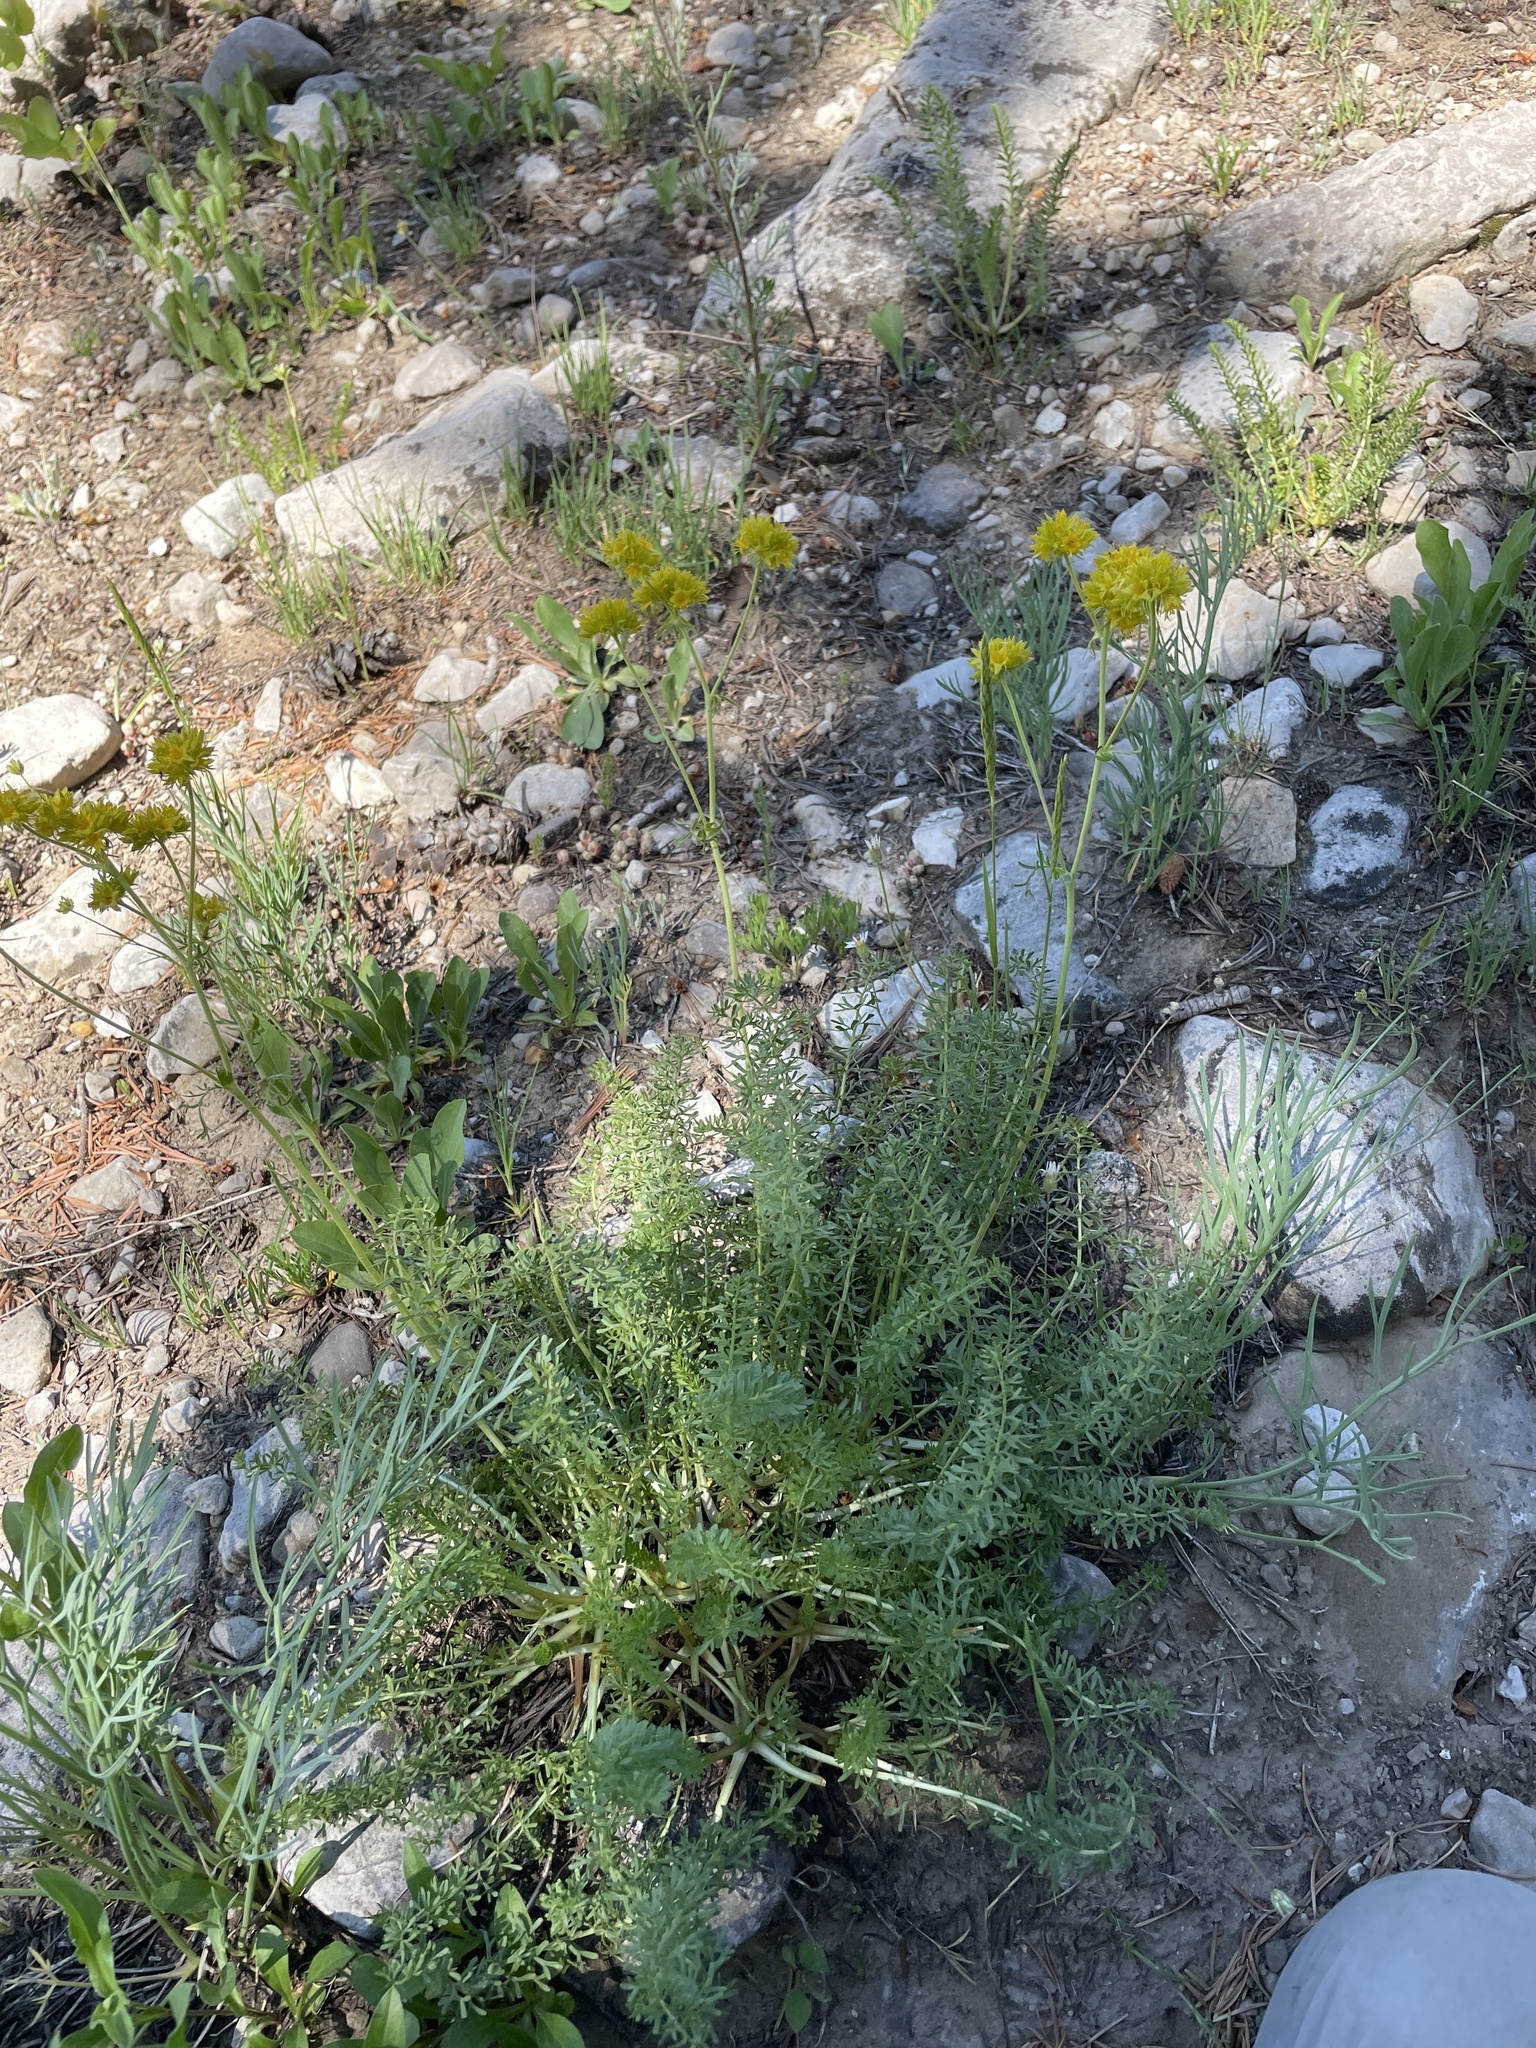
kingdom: Plantae
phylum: Tracheophyta
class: Magnoliopsida
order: Rosales
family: Rosaceae
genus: Potentilla
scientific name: Potentilla gordonii
